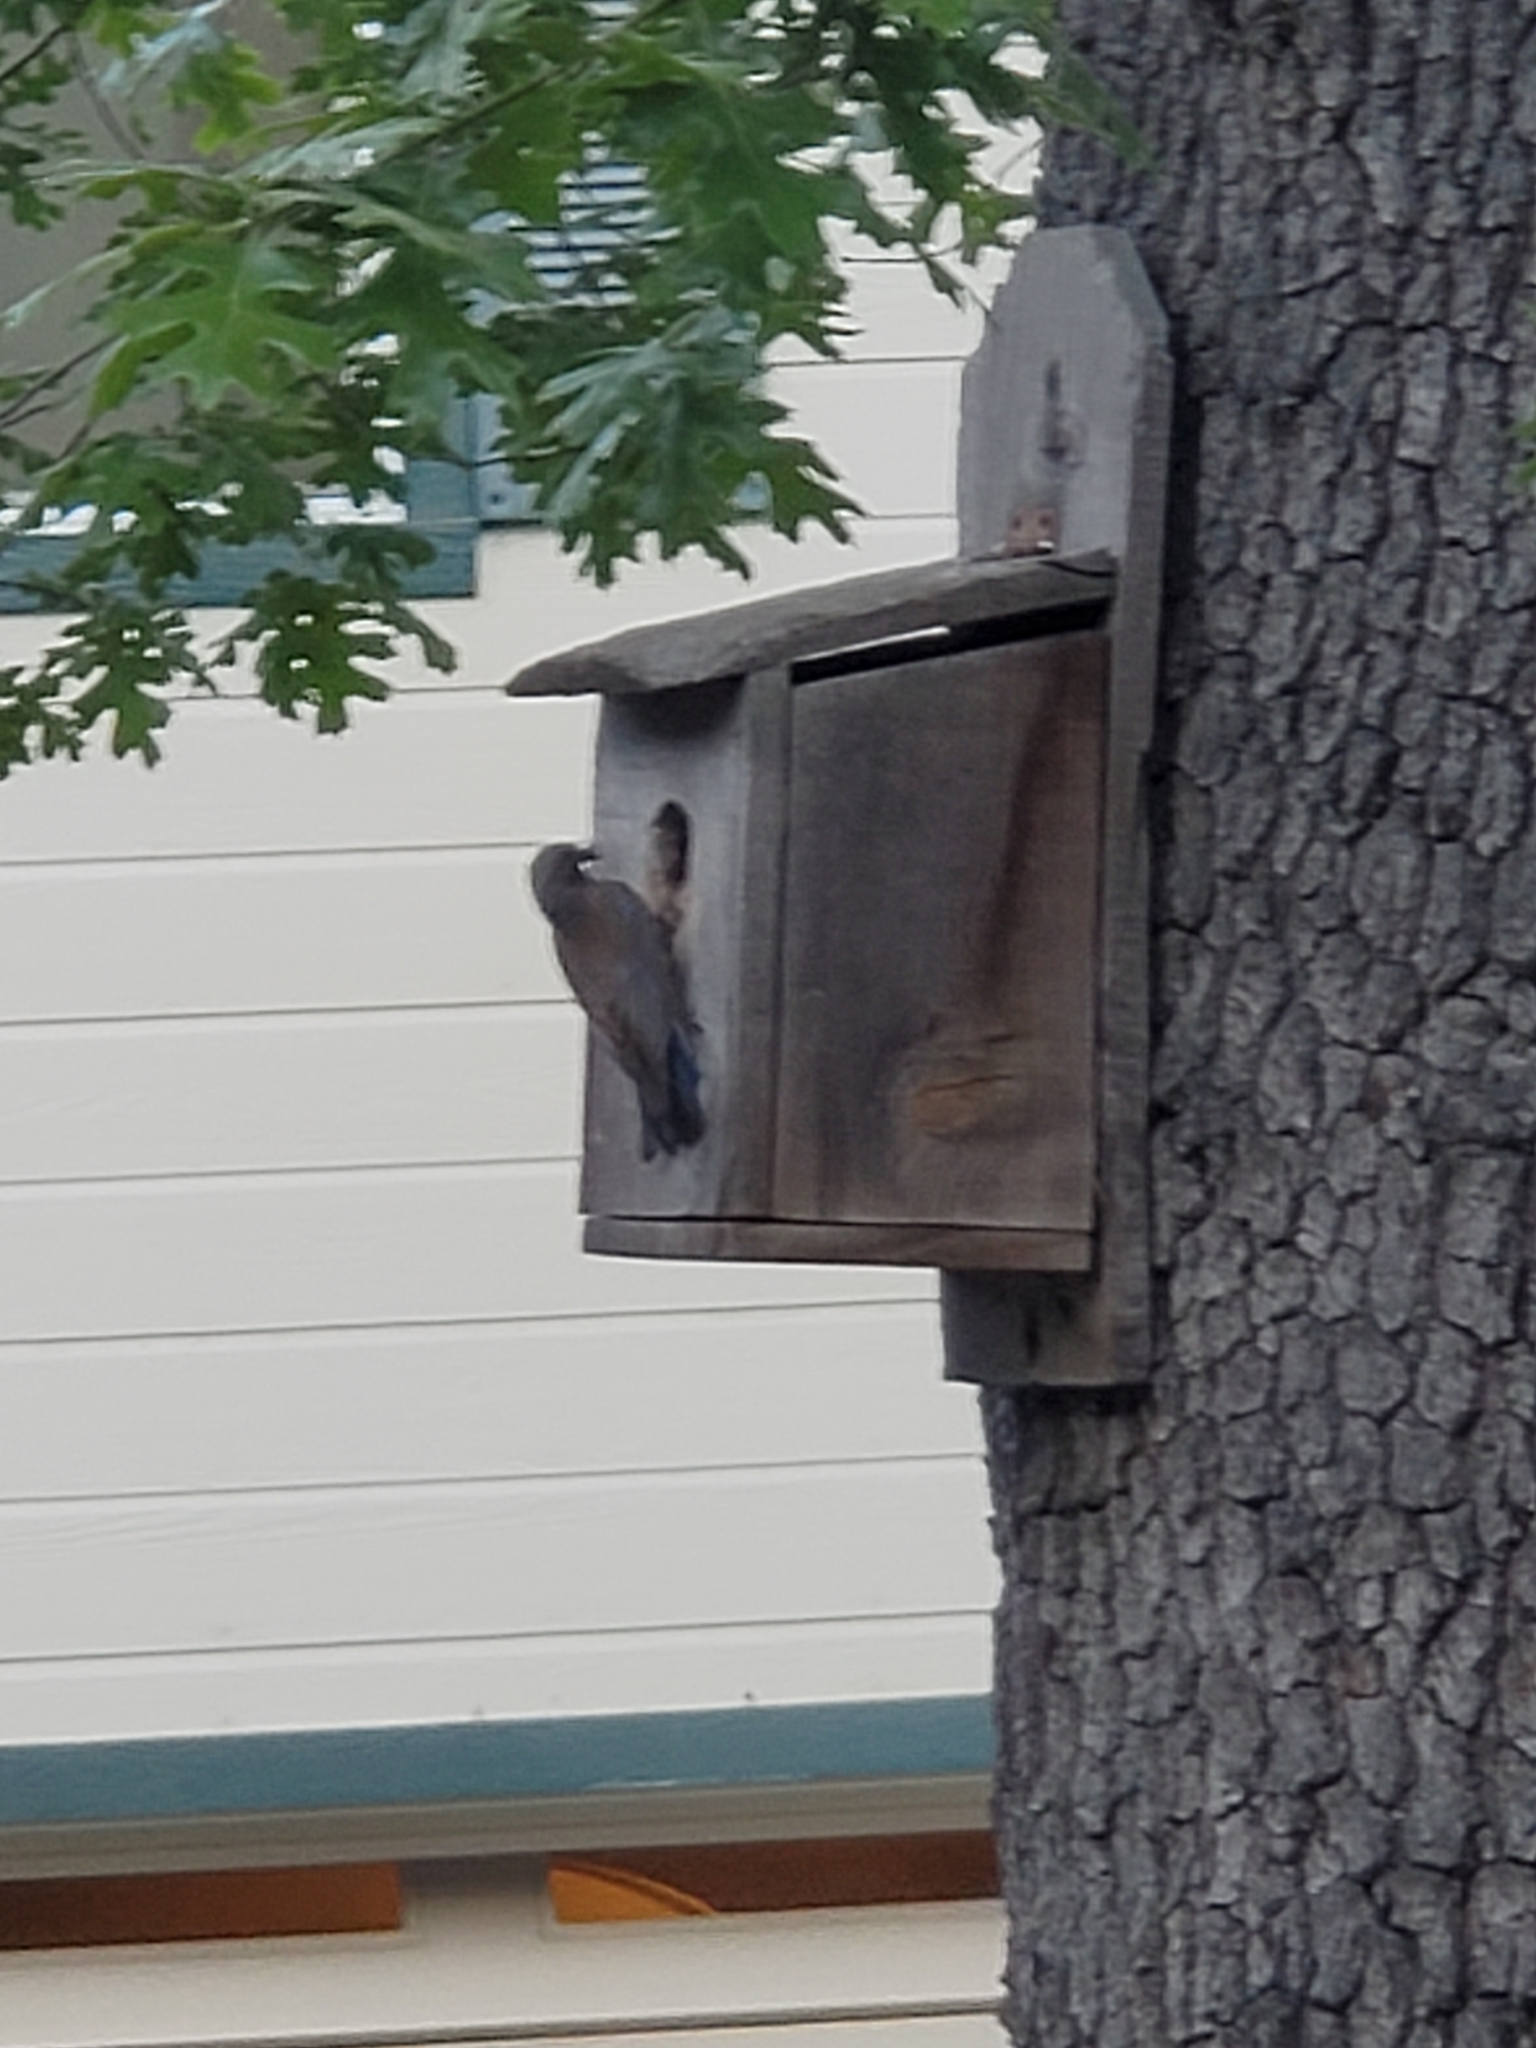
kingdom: Animalia
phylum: Chordata
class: Aves
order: Passeriformes
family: Turdidae
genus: Sialia
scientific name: Sialia mexicana
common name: Western bluebird
